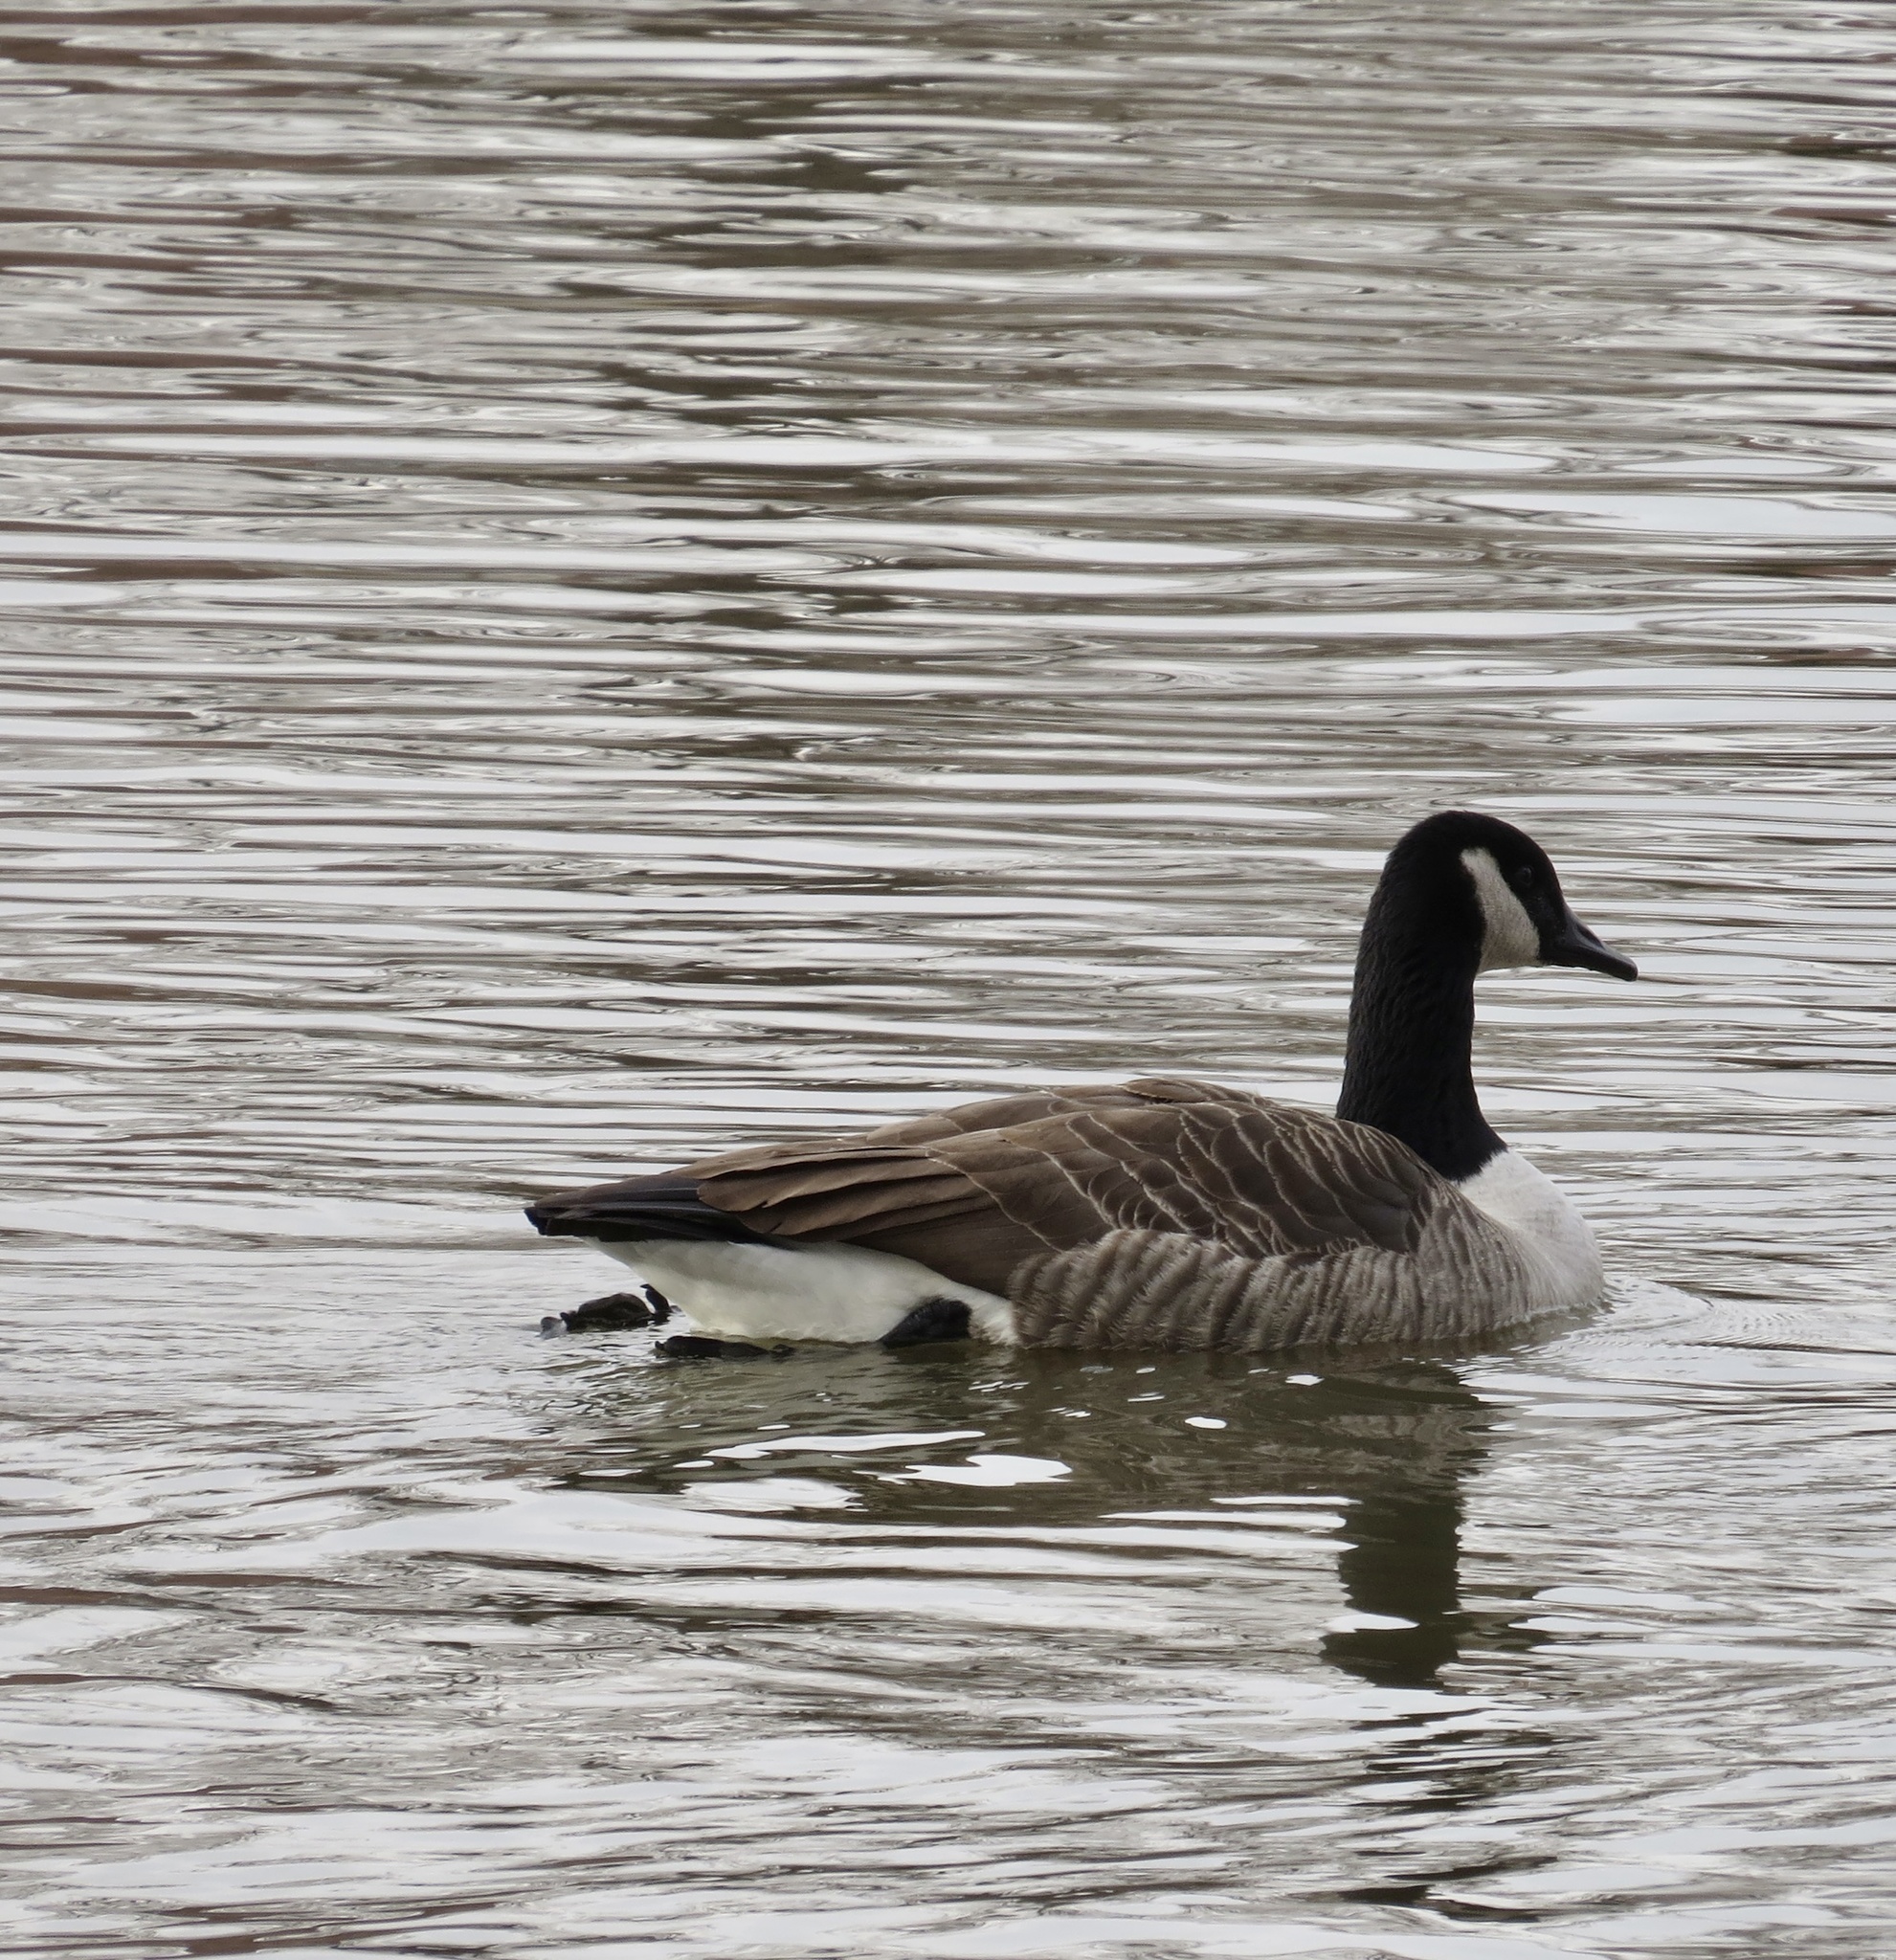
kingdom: Animalia
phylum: Chordata
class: Aves
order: Anseriformes
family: Anatidae
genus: Branta
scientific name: Branta canadensis
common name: Canada goose
